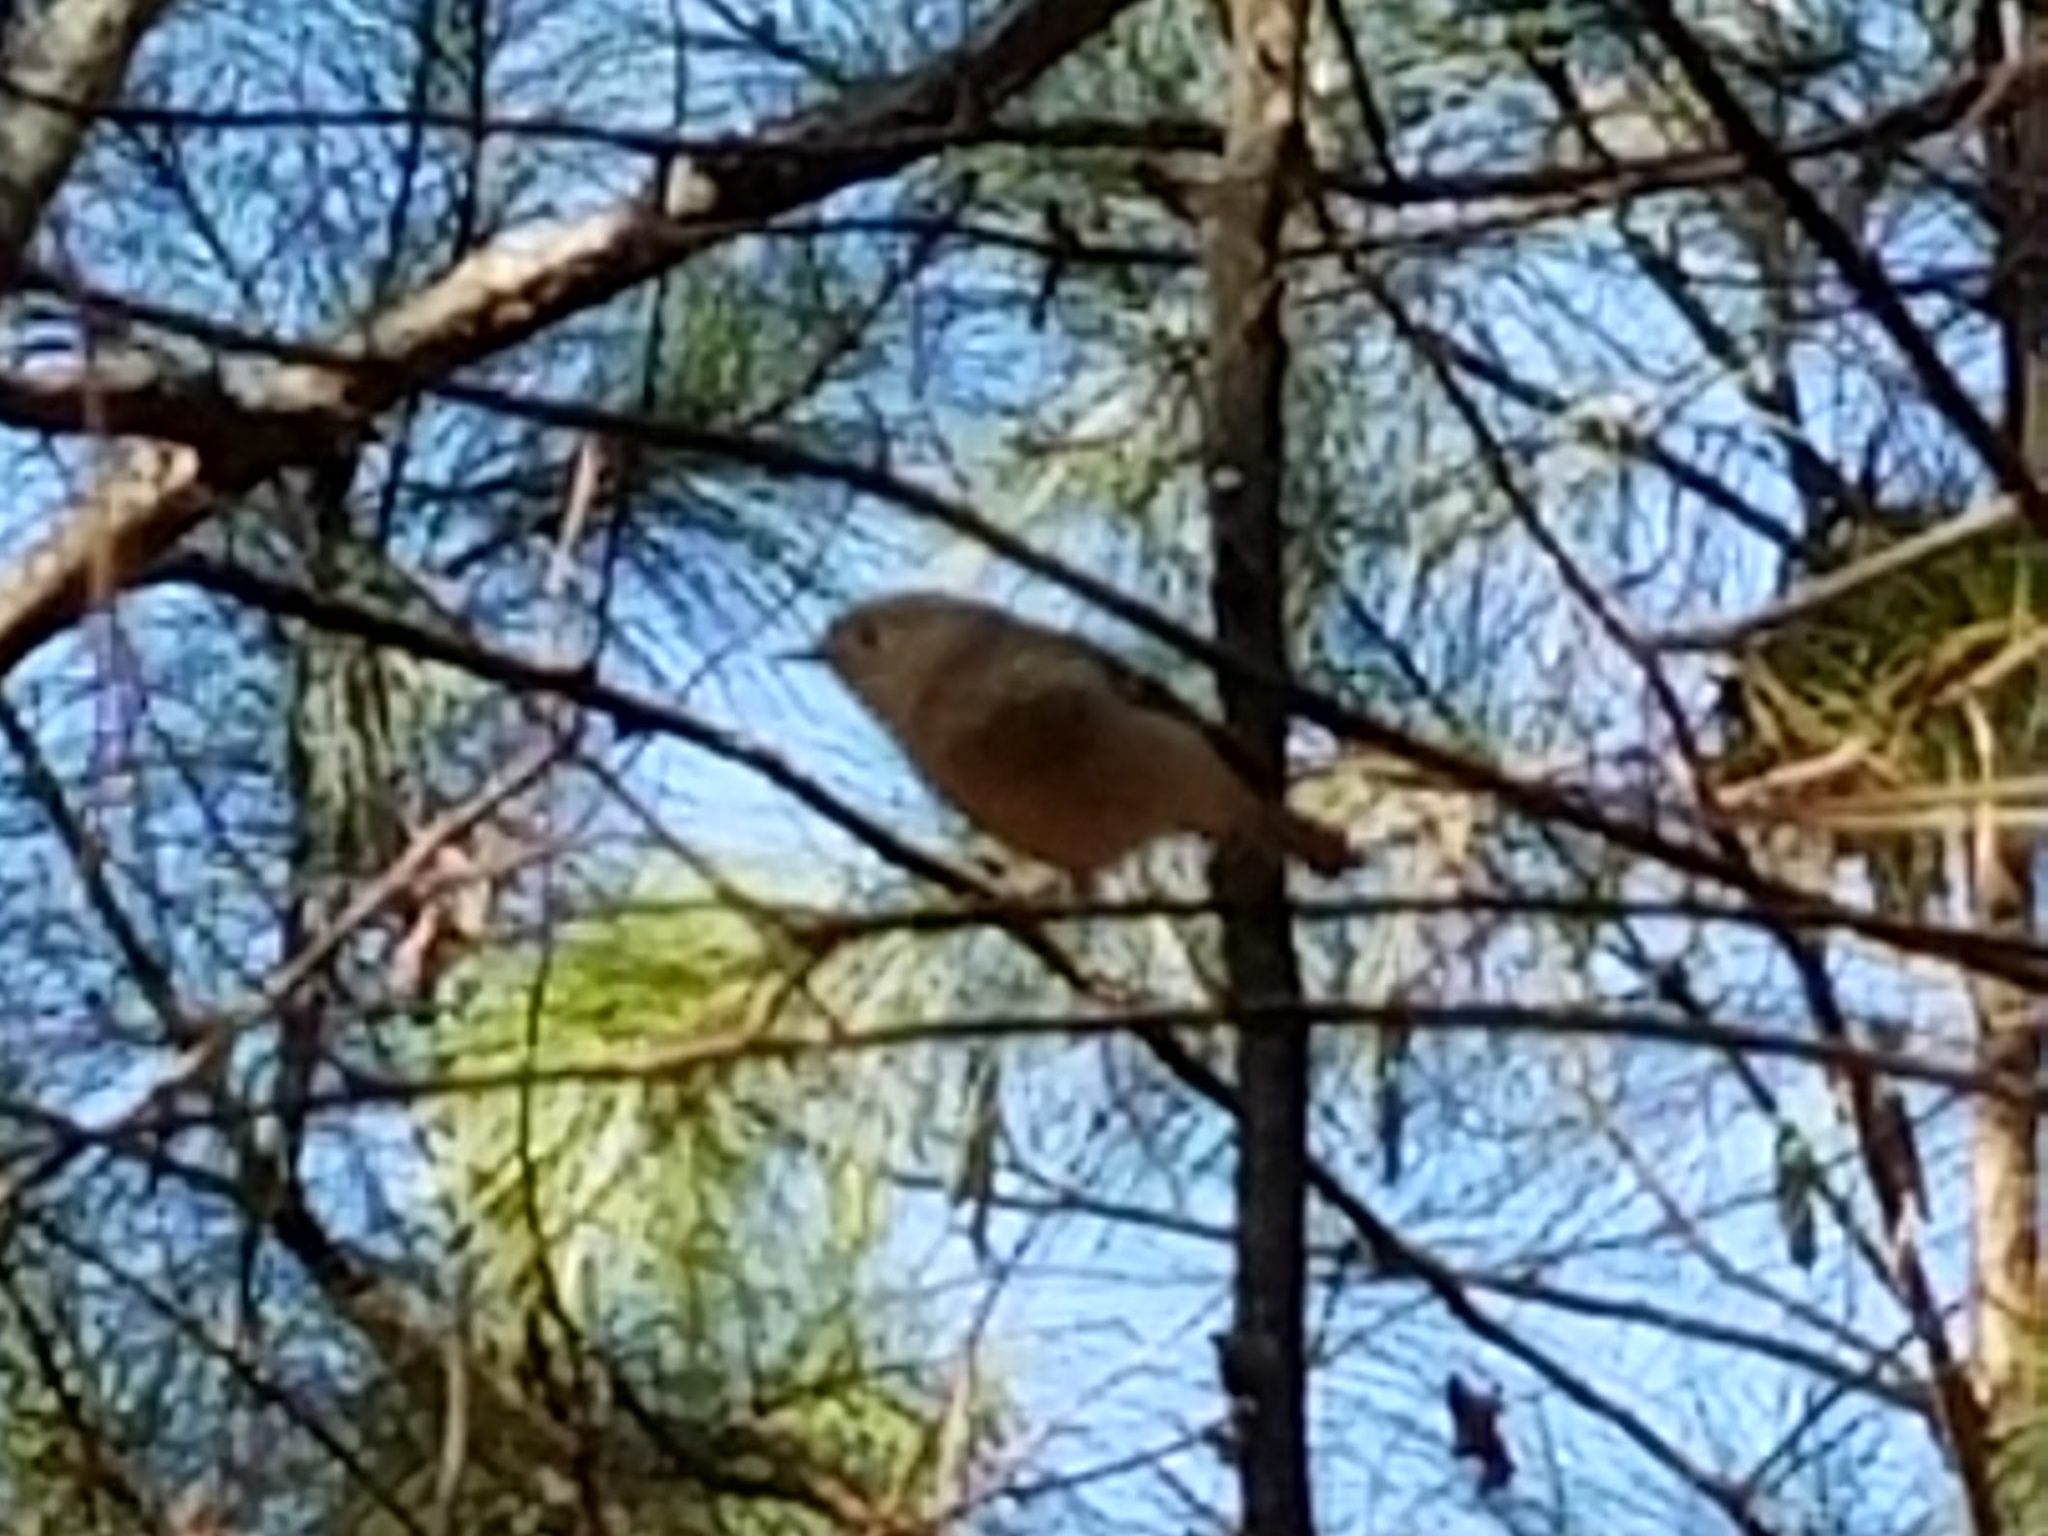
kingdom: Animalia
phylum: Chordata
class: Aves
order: Passeriformes
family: Regulidae
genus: Regulus
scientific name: Regulus calendula
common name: Ruby-crowned kinglet
